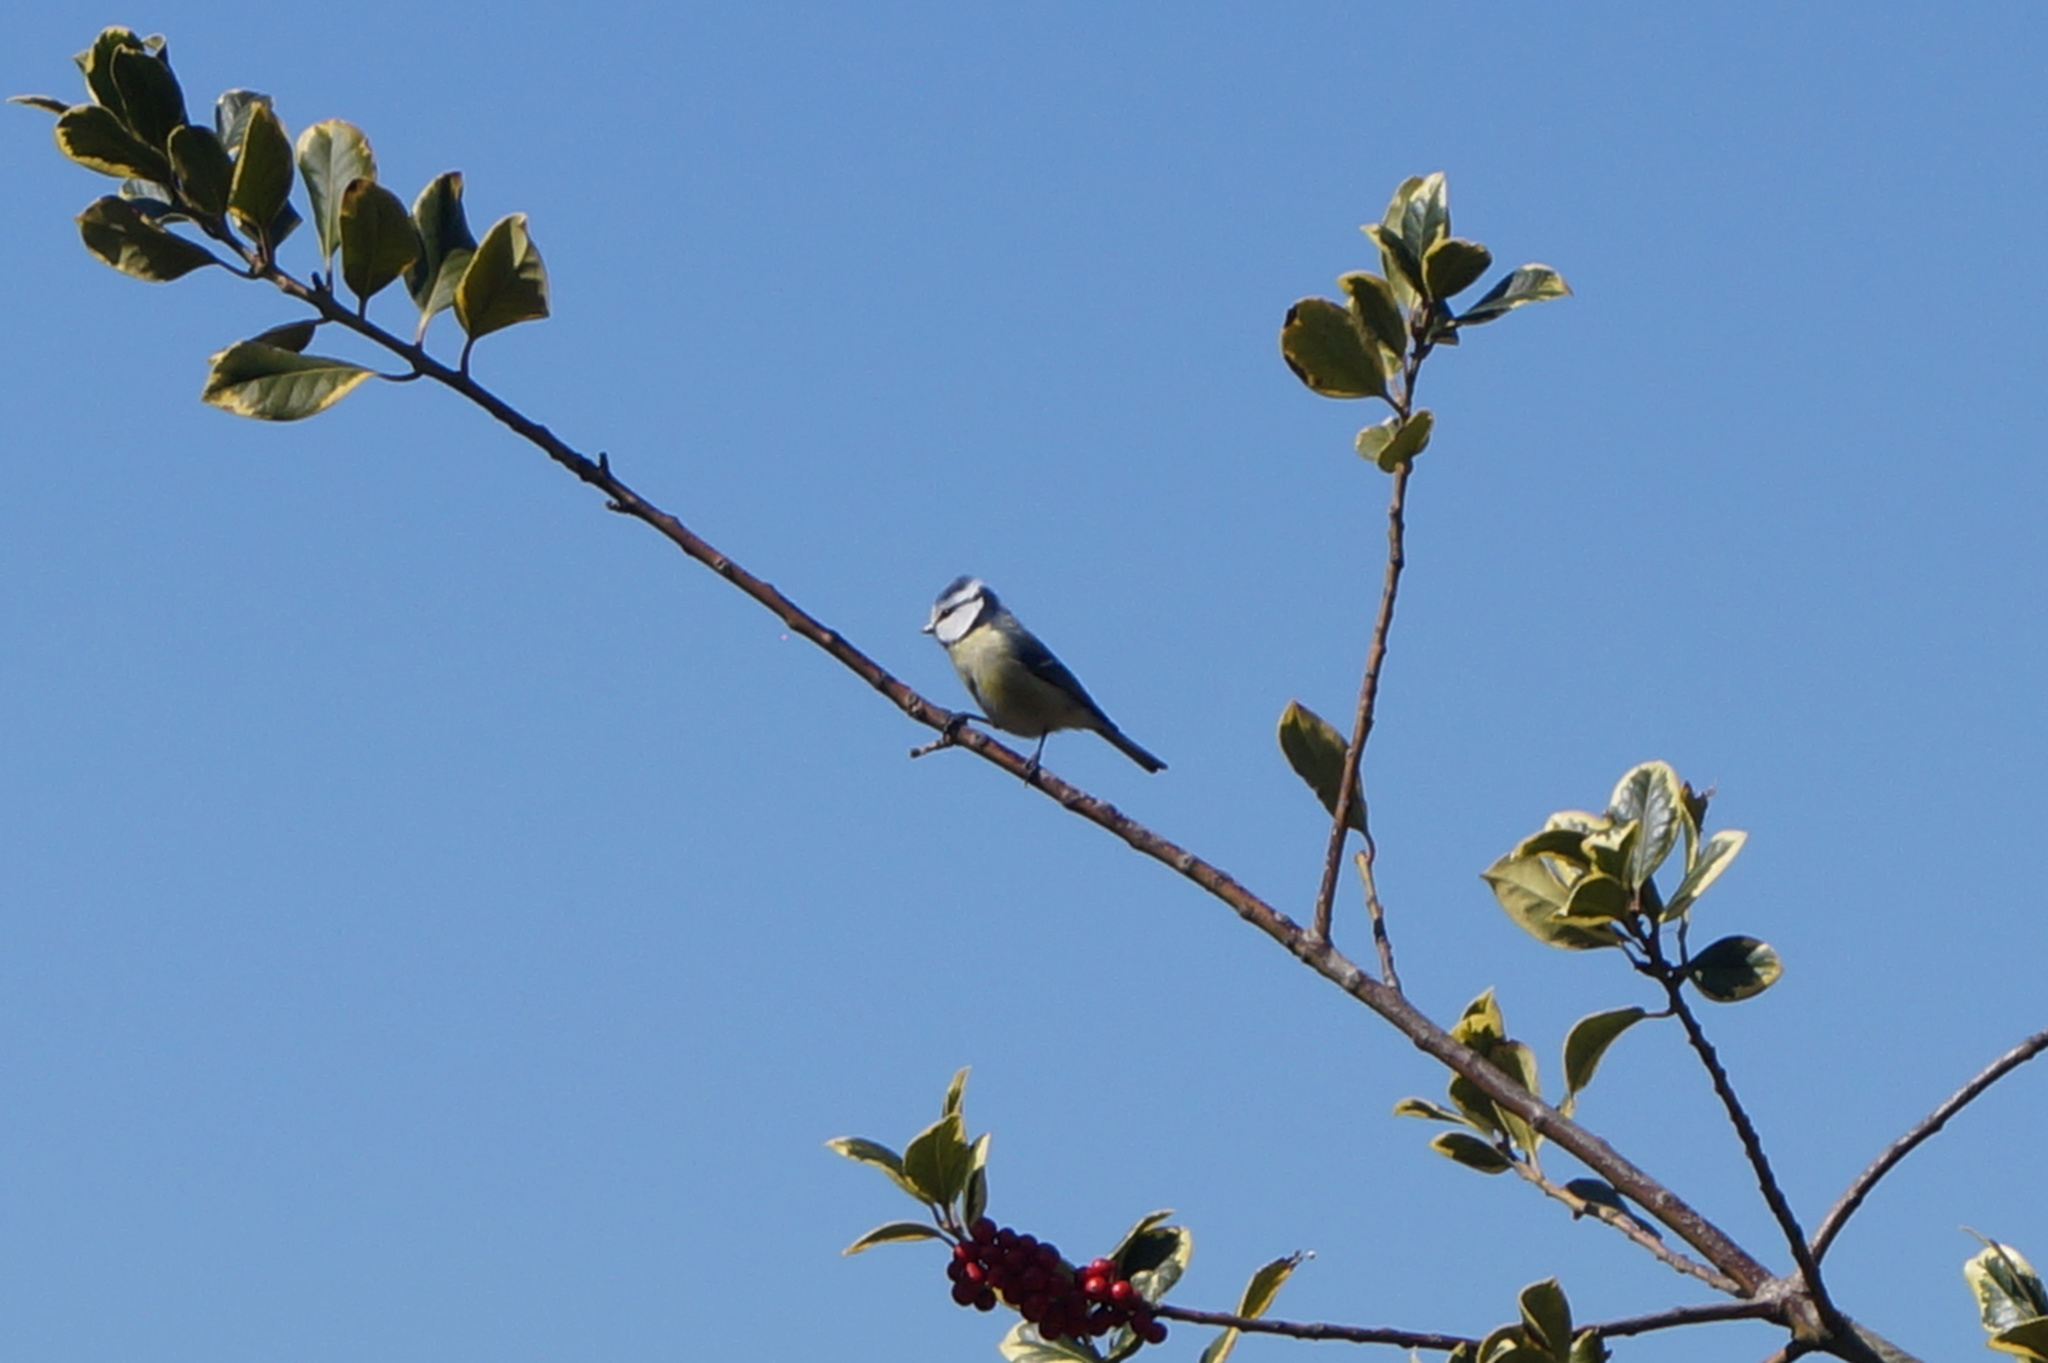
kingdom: Animalia
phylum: Chordata
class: Aves
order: Passeriformes
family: Paridae
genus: Cyanistes
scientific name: Cyanistes caeruleus
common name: Eurasian blue tit
